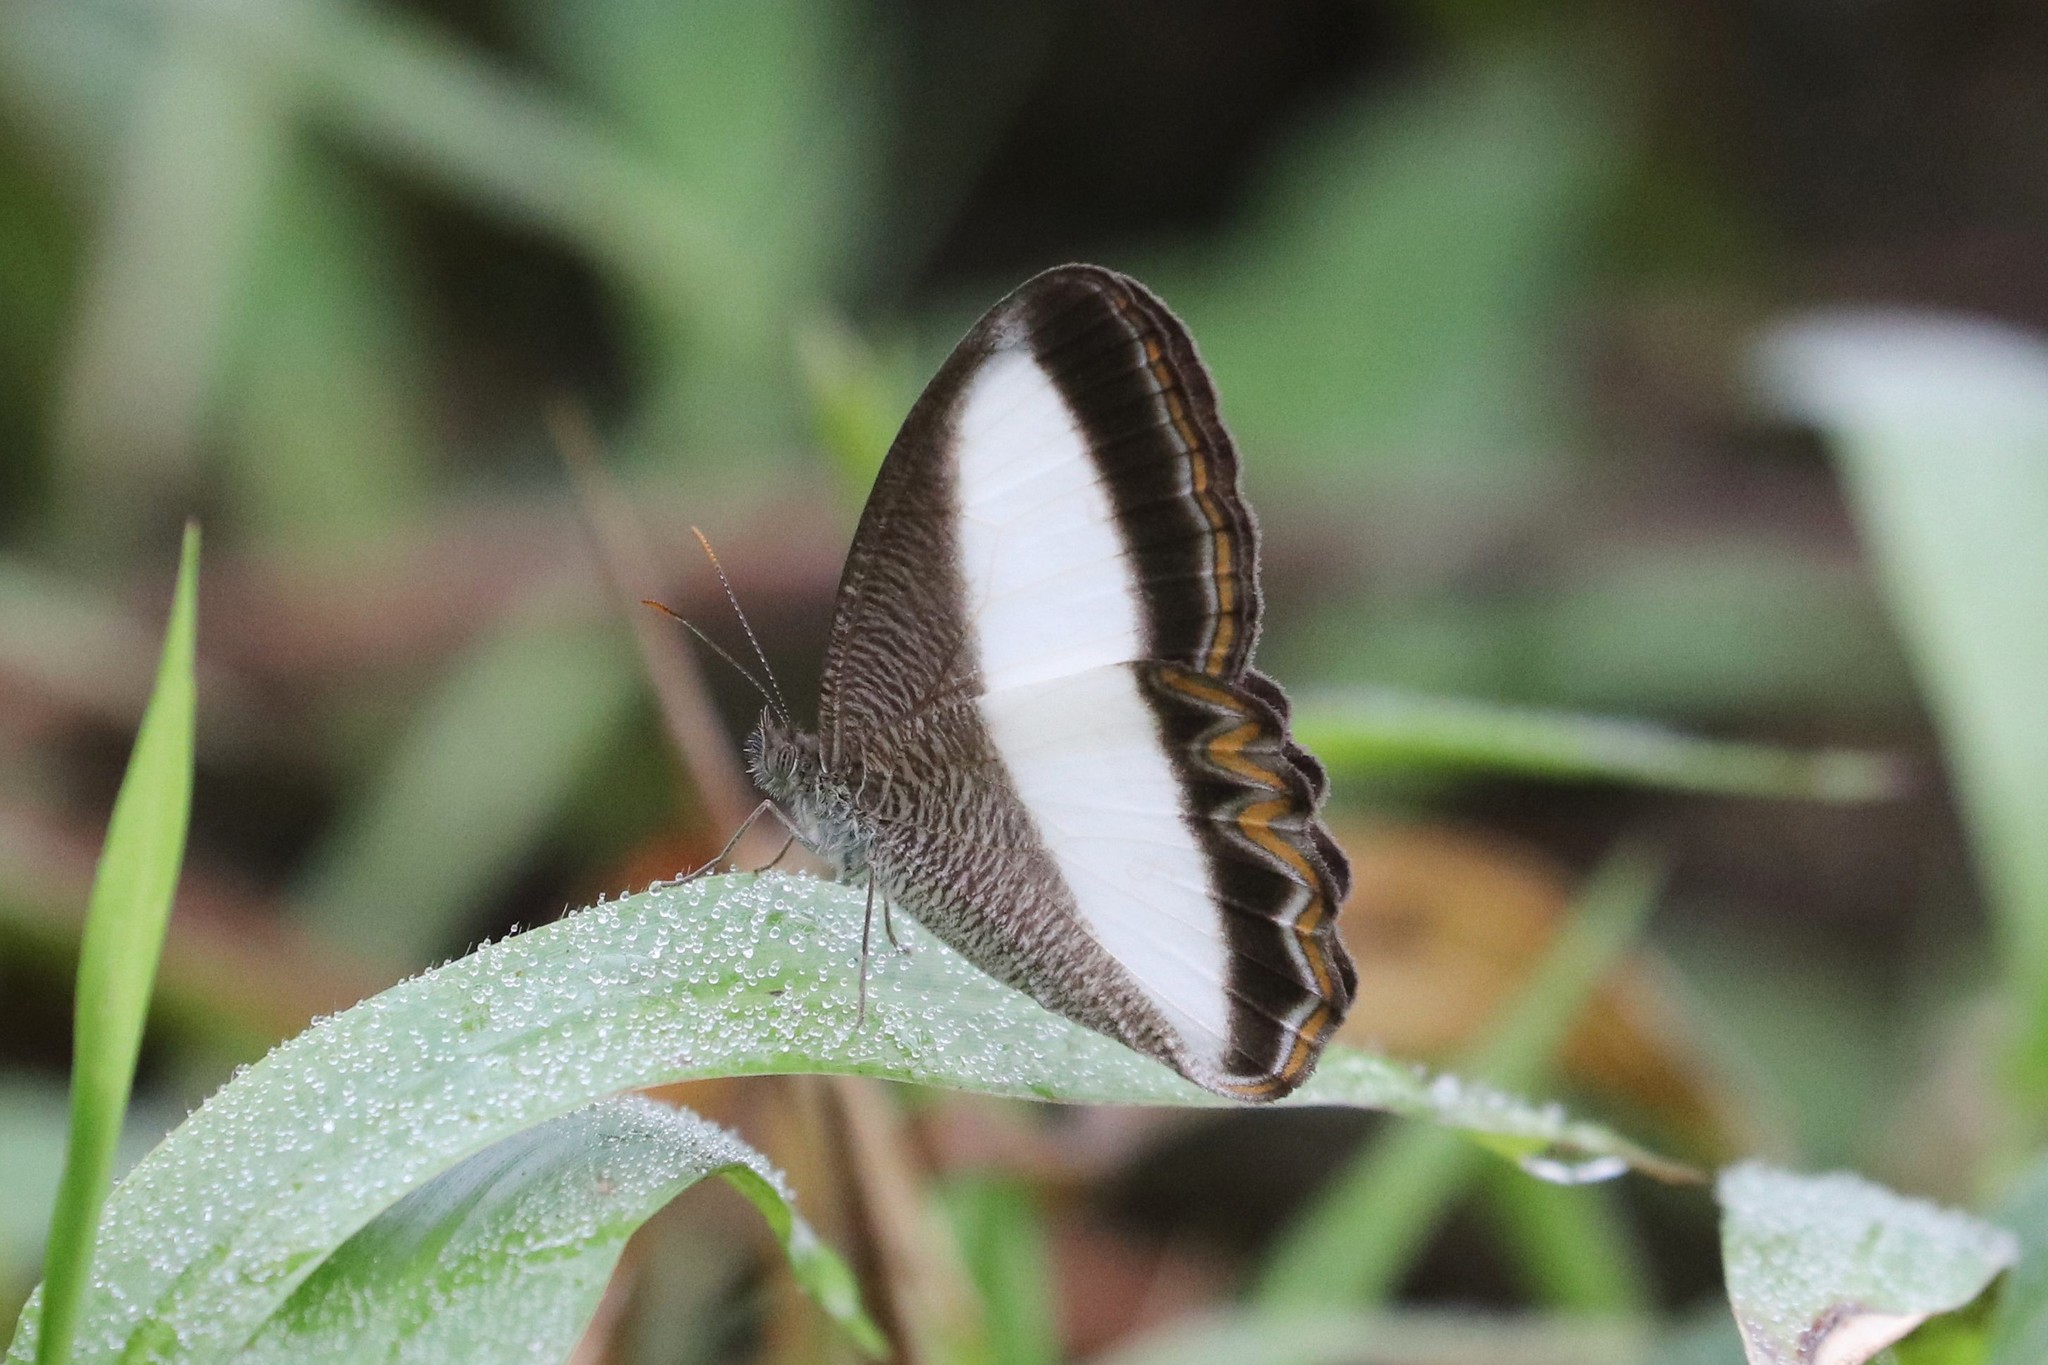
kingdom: Animalia
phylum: Arthropoda
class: Insecta
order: Lepidoptera
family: Nymphalidae
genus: Oressinoma
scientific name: Oressinoma typhla
